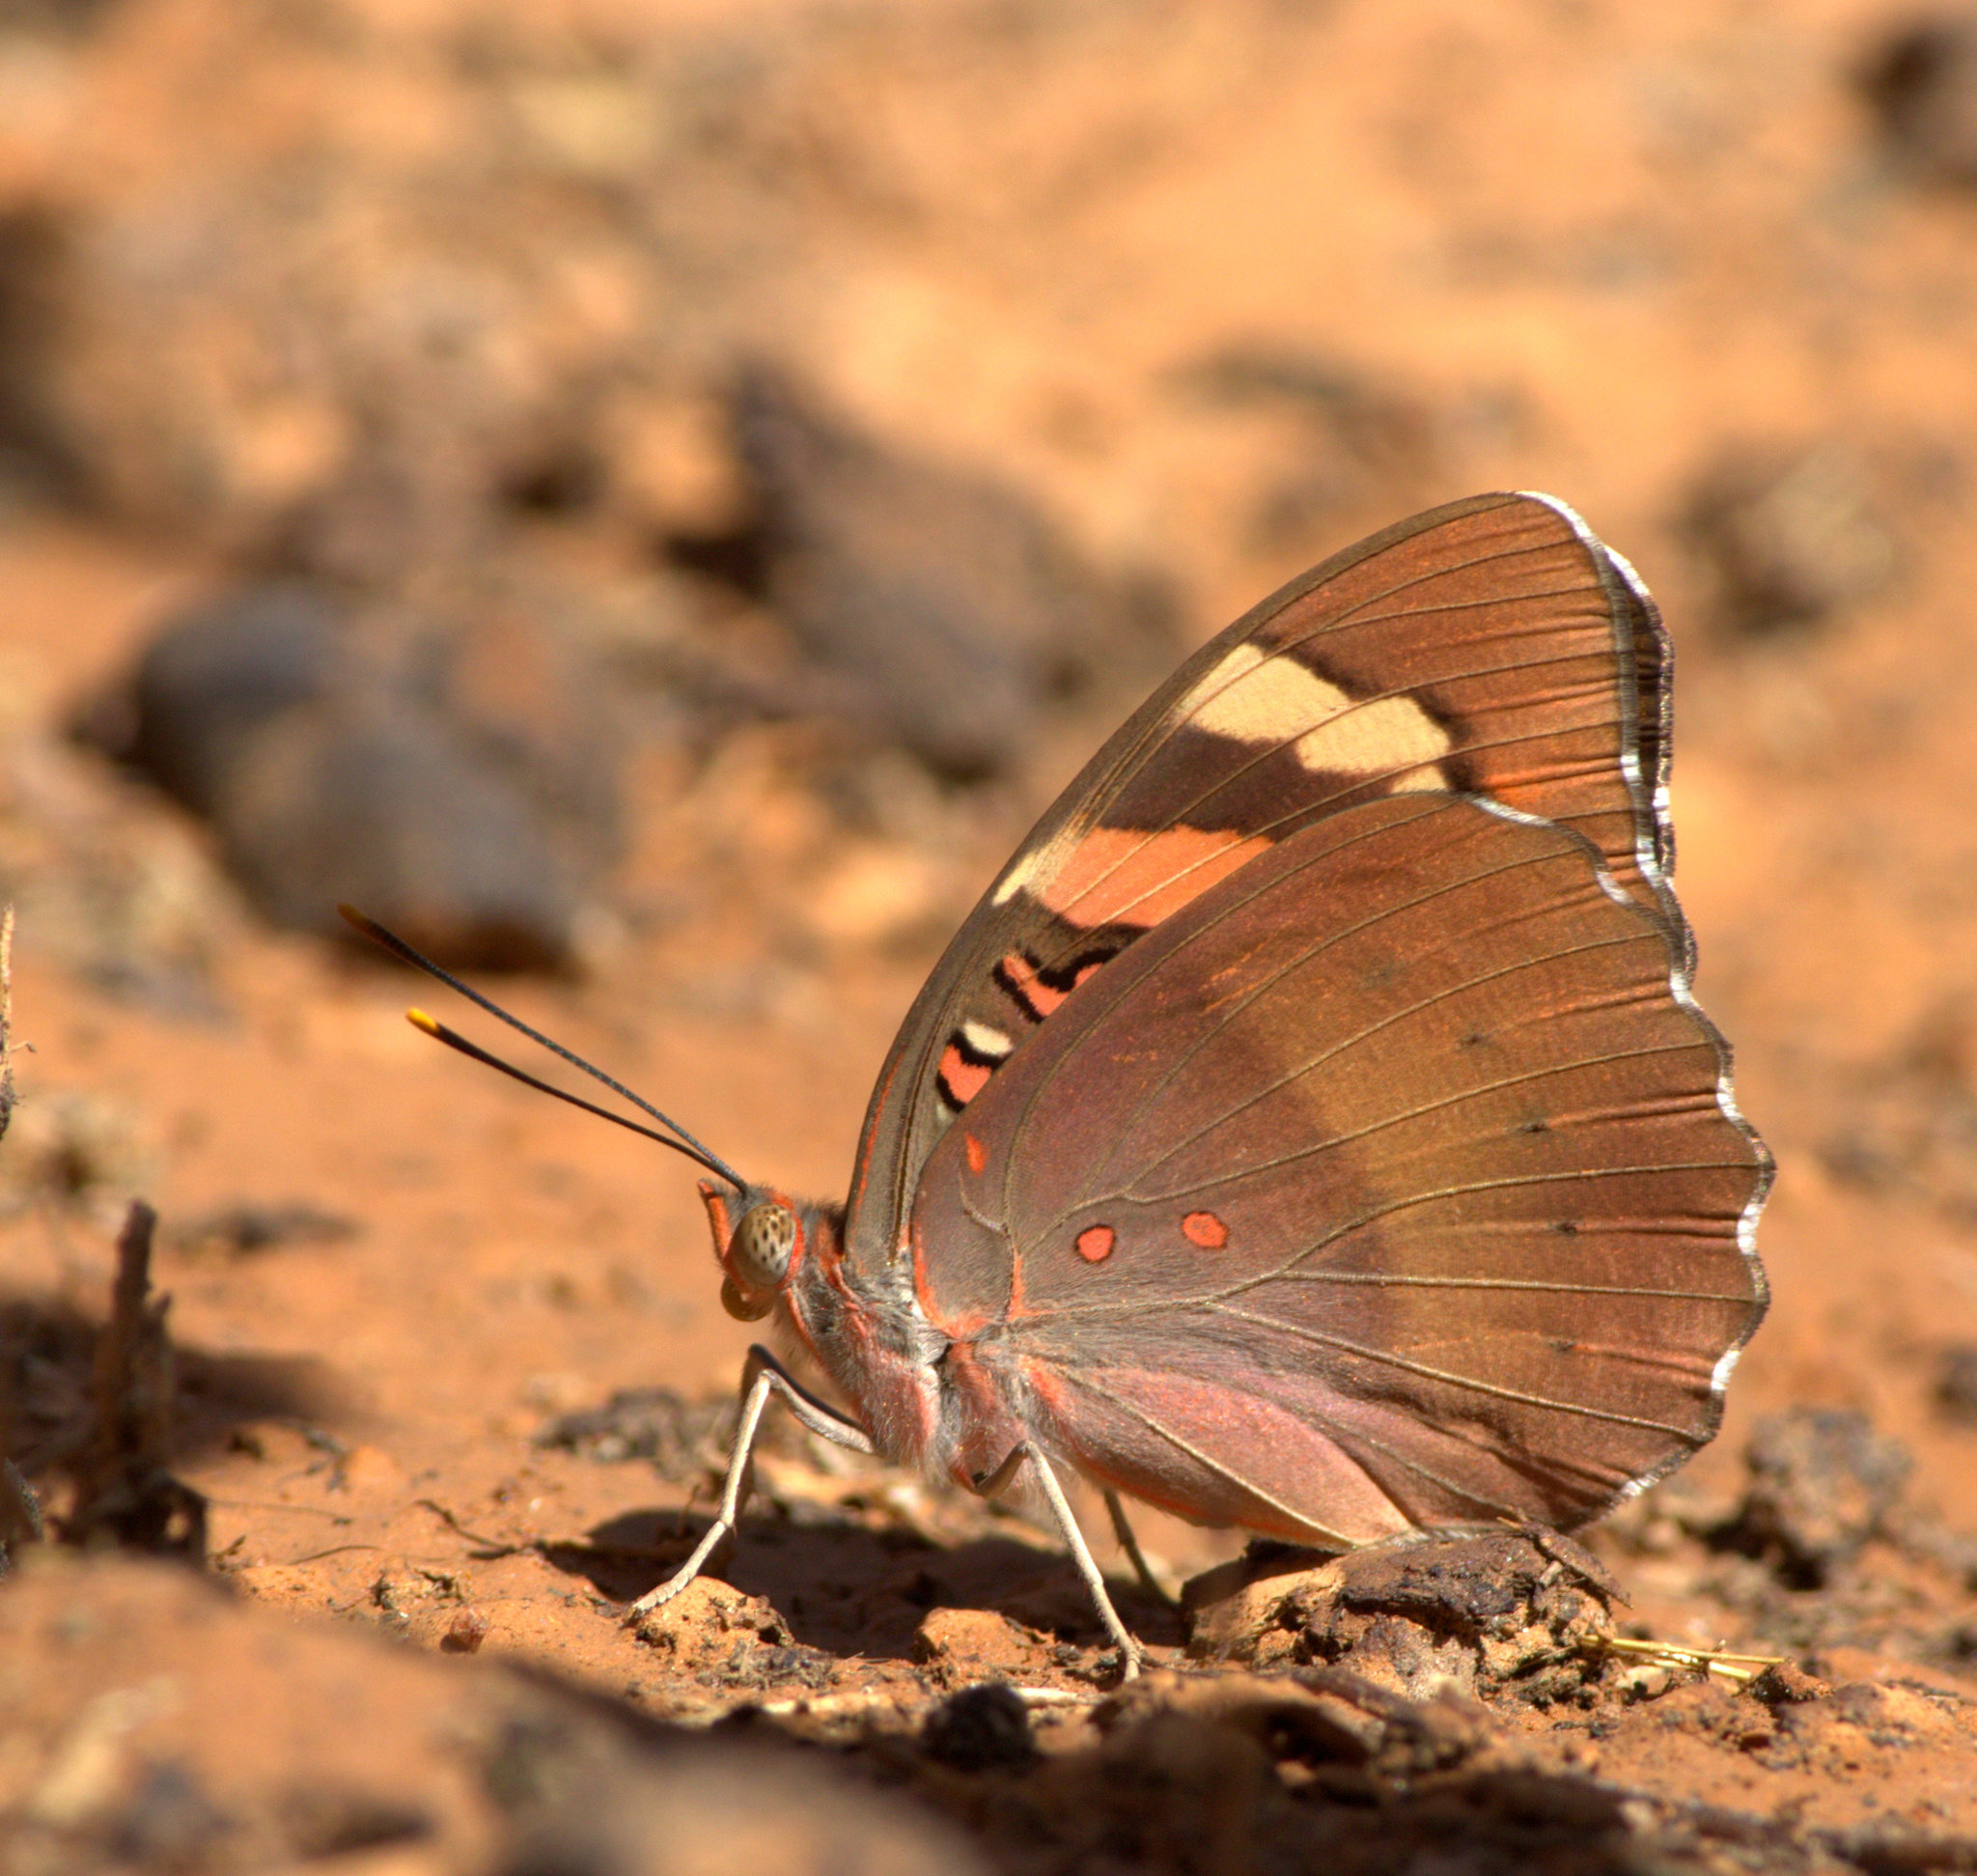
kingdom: Animalia
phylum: Arthropoda
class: Insecta
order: Lepidoptera
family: Nymphalidae
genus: Euthalia
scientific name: Euthalia nais
